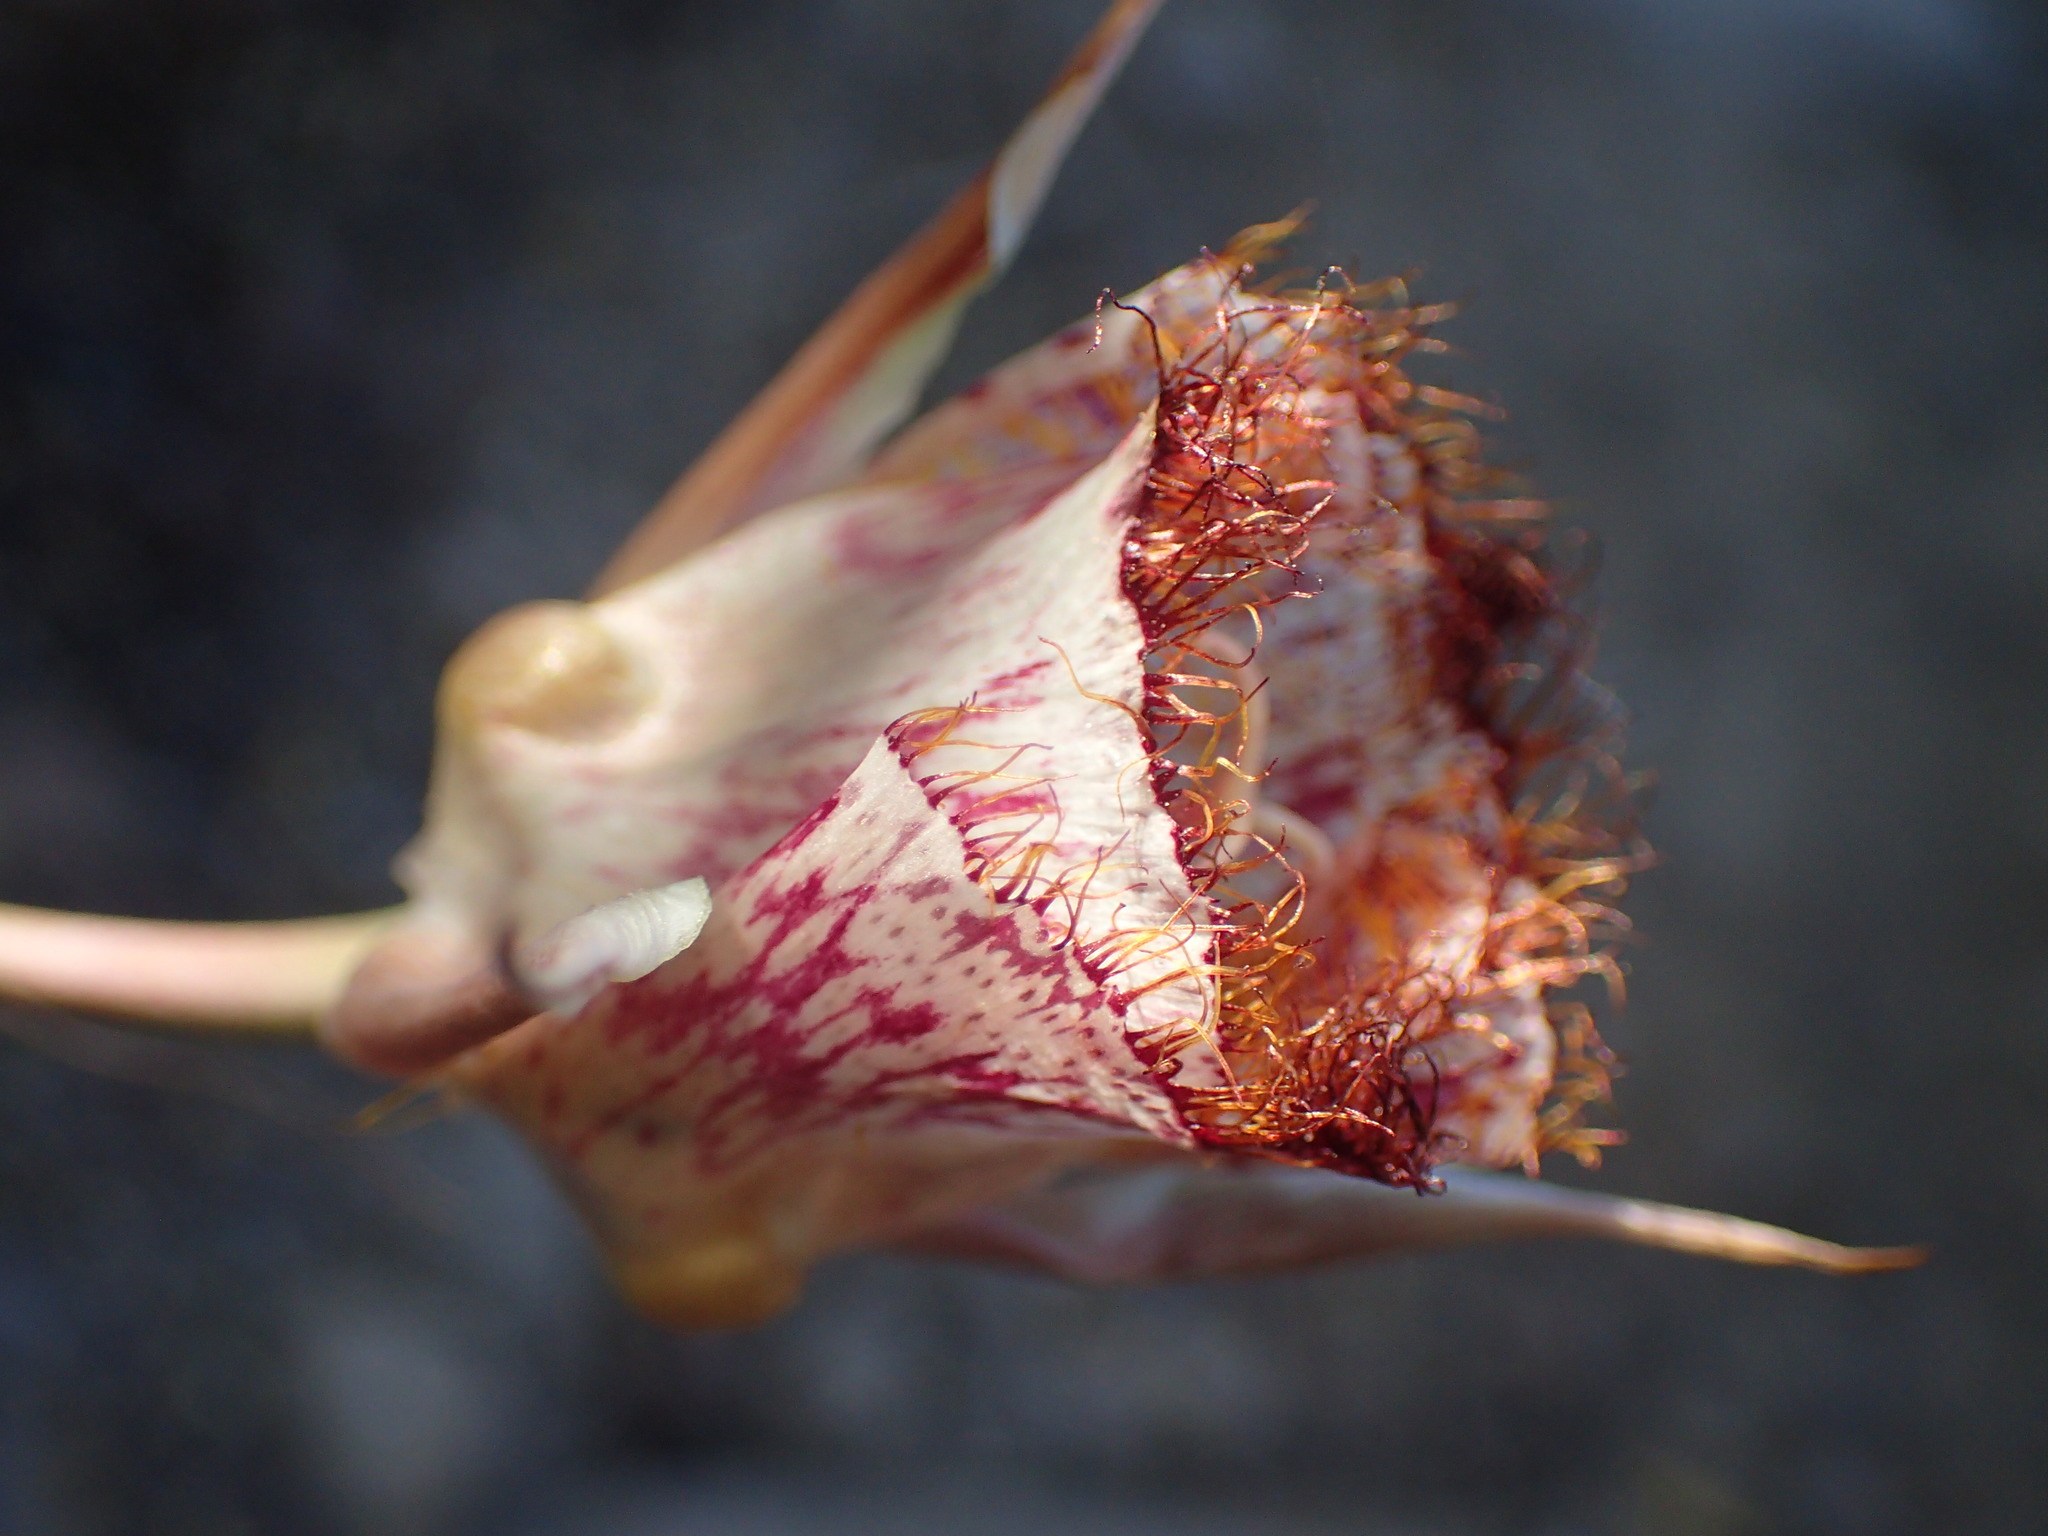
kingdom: Plantae
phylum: Tracheophyta
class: Liliopsida
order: Liliales
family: Liliaceae
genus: Calochortus
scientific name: Calochortus fimbriatus
